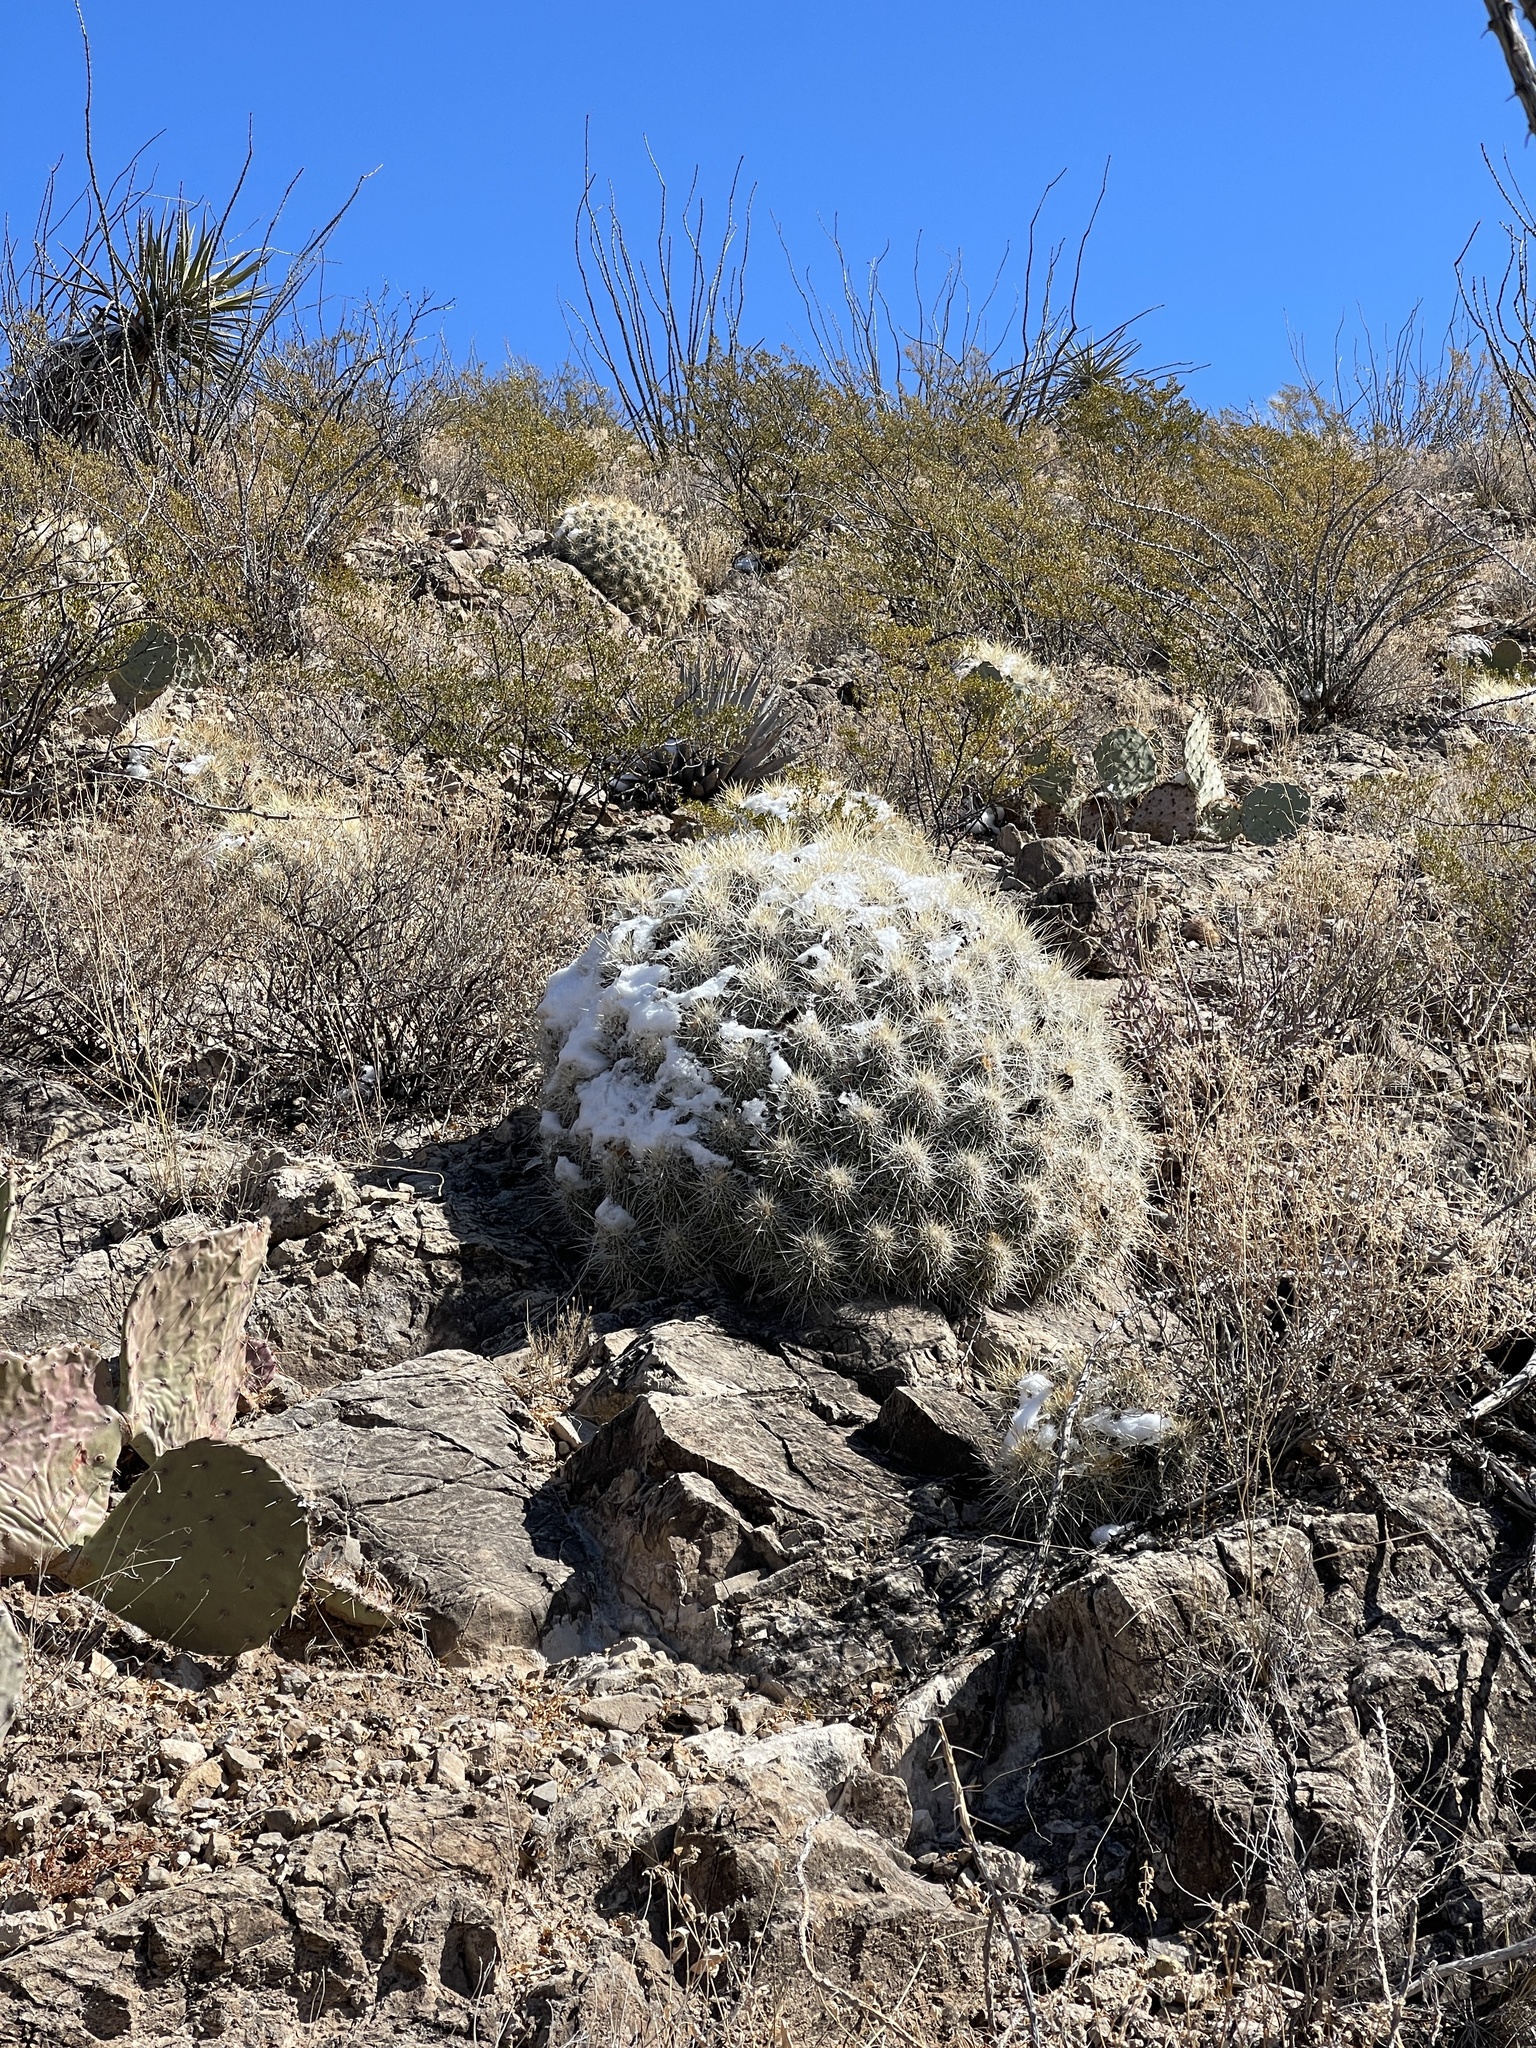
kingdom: Plantae
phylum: Tracheophyta
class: Magnoliopsida
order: Caryophyllales
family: Cactaceae
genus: Echinocereus
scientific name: Echinocereus stramineus
